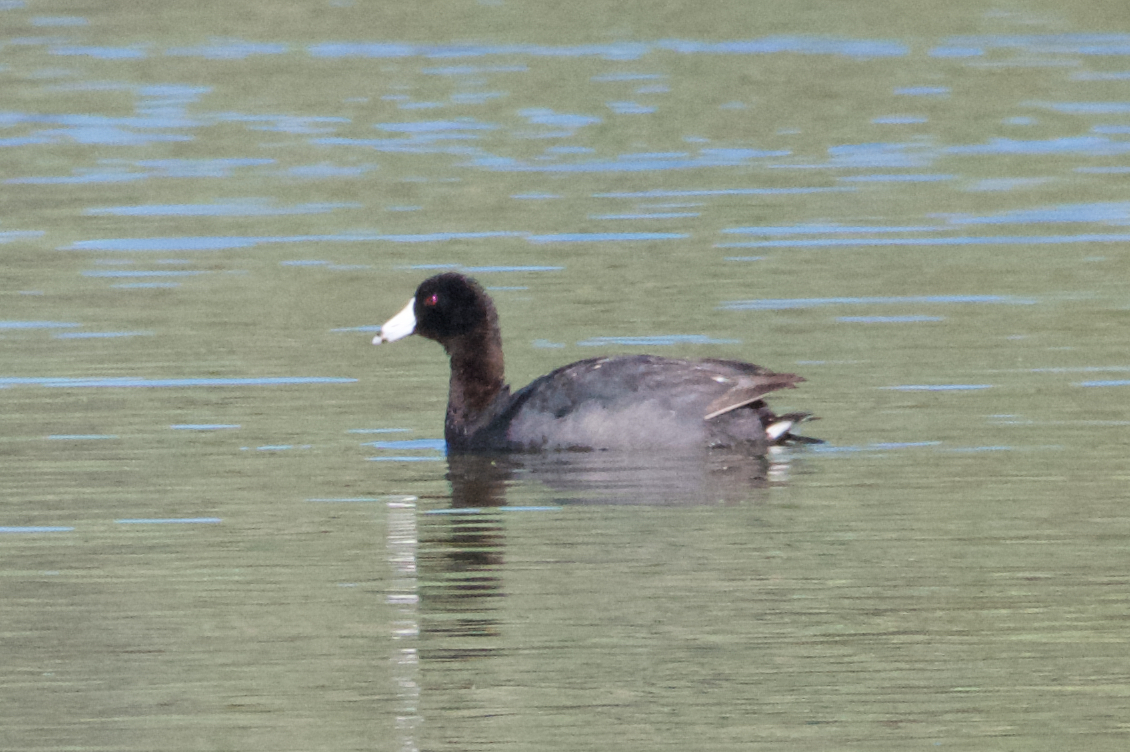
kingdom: Animalia
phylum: Chordata
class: Aves
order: Gruiformes
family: Rallidae
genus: Fulica
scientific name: Fulica americana
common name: American coot
